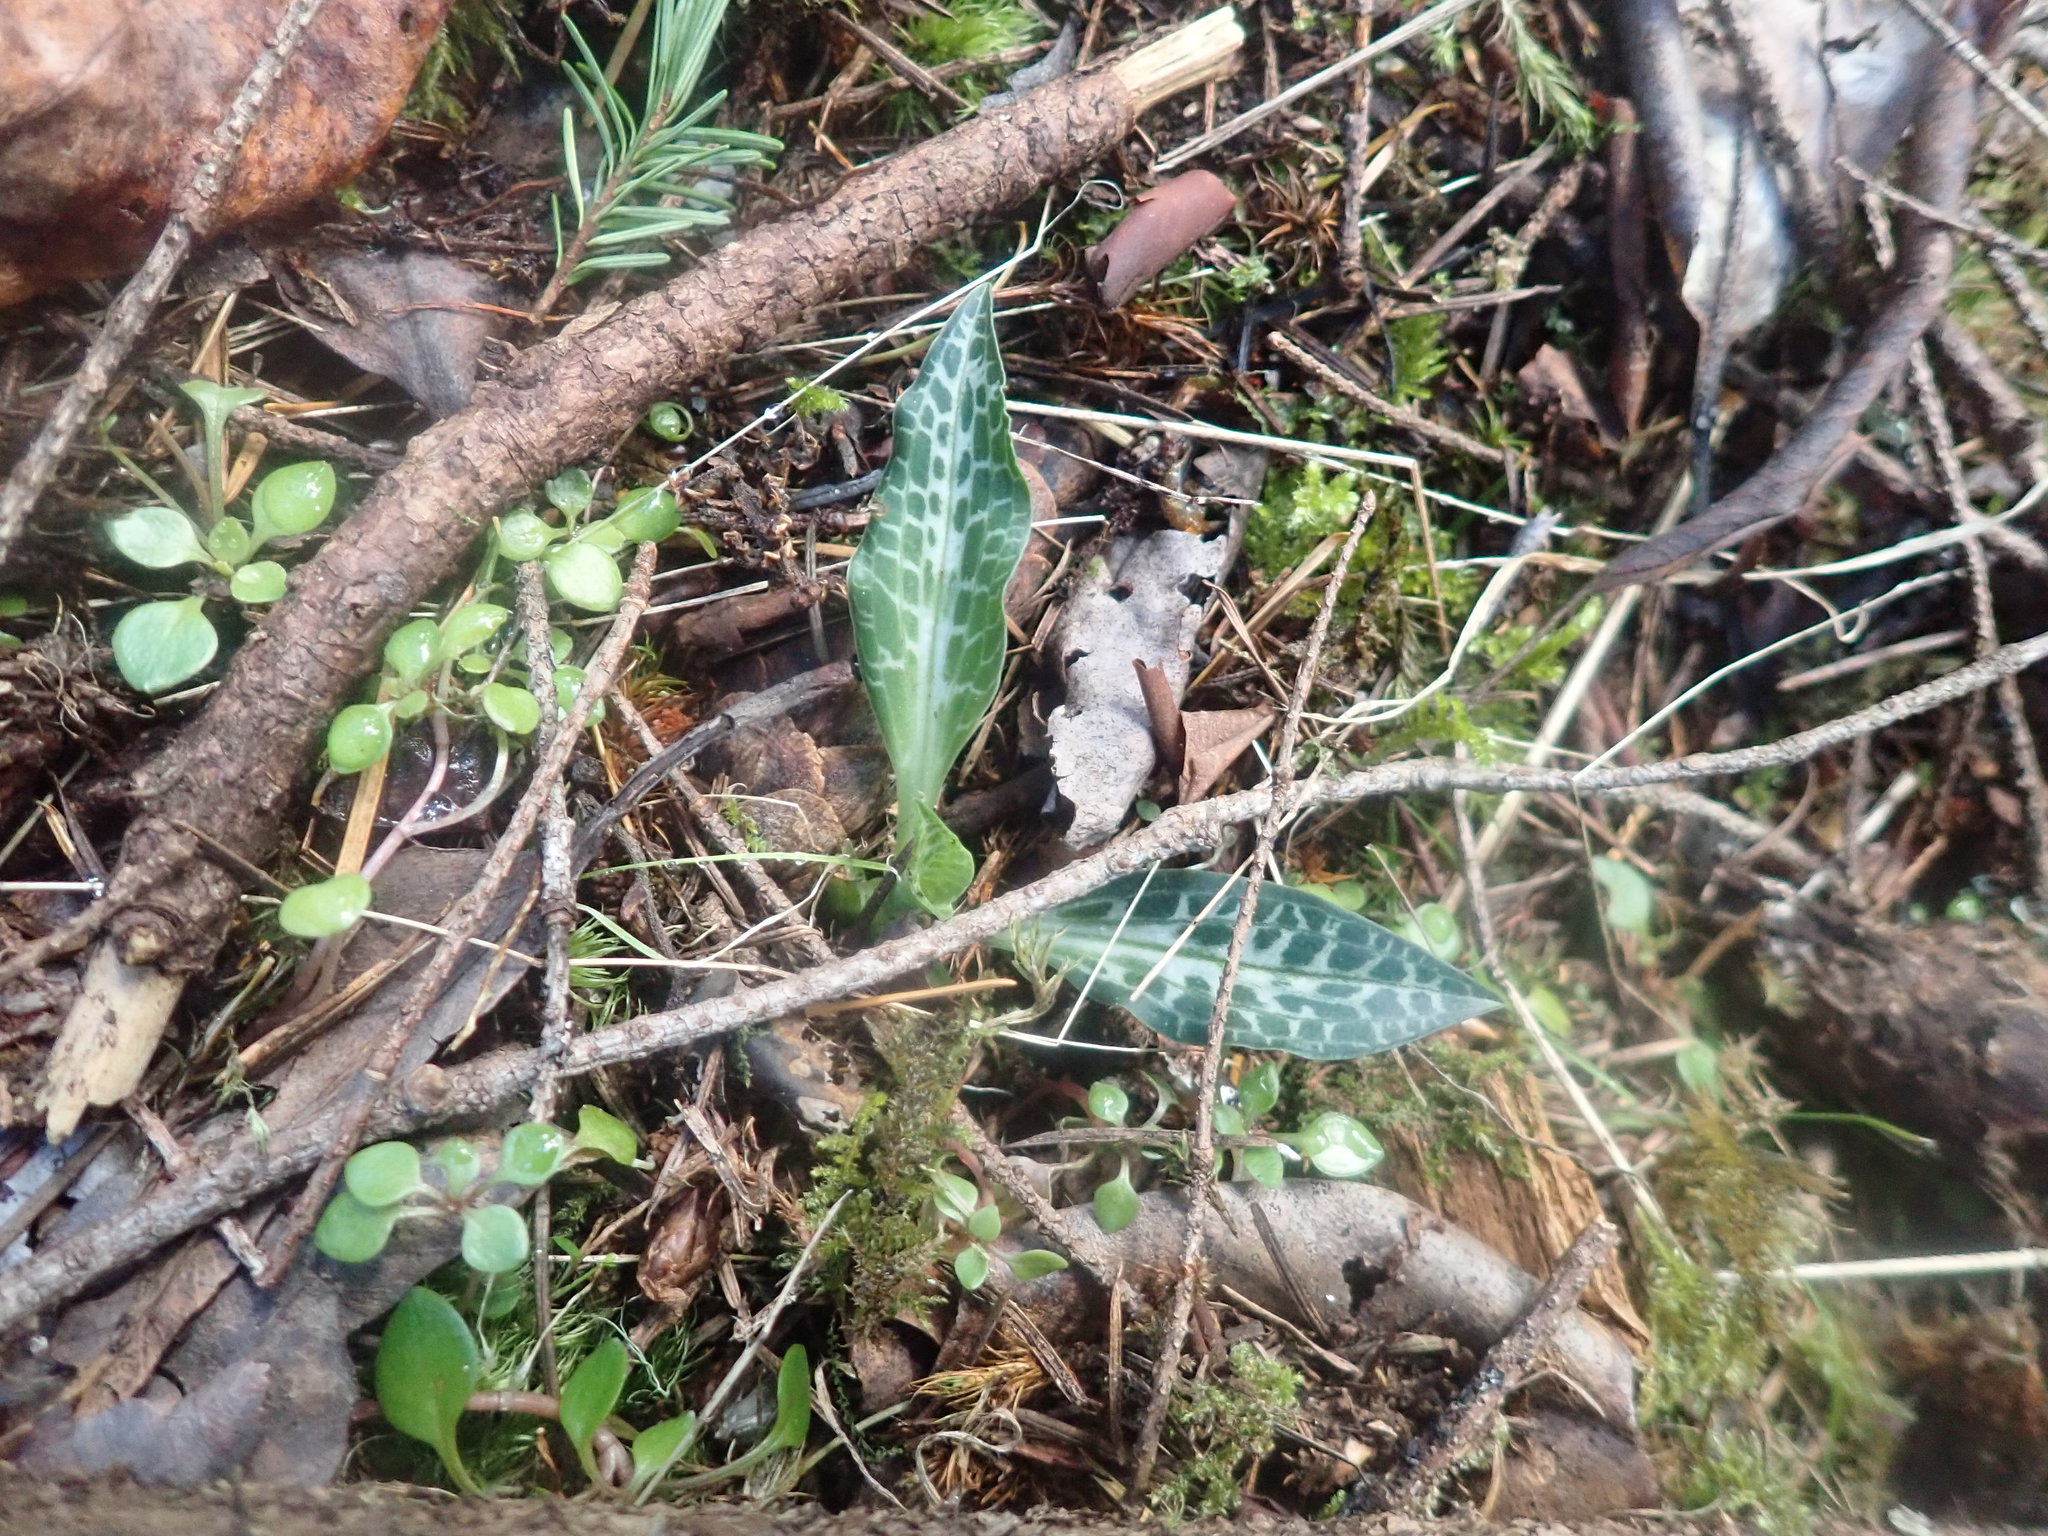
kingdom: Plantae
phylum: Tracheophyta
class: Liliopsida
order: Asparagales
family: Orchidaceae
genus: Goodyera
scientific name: Goodyera oblongifolia
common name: Giant rattlesnake-plantain
